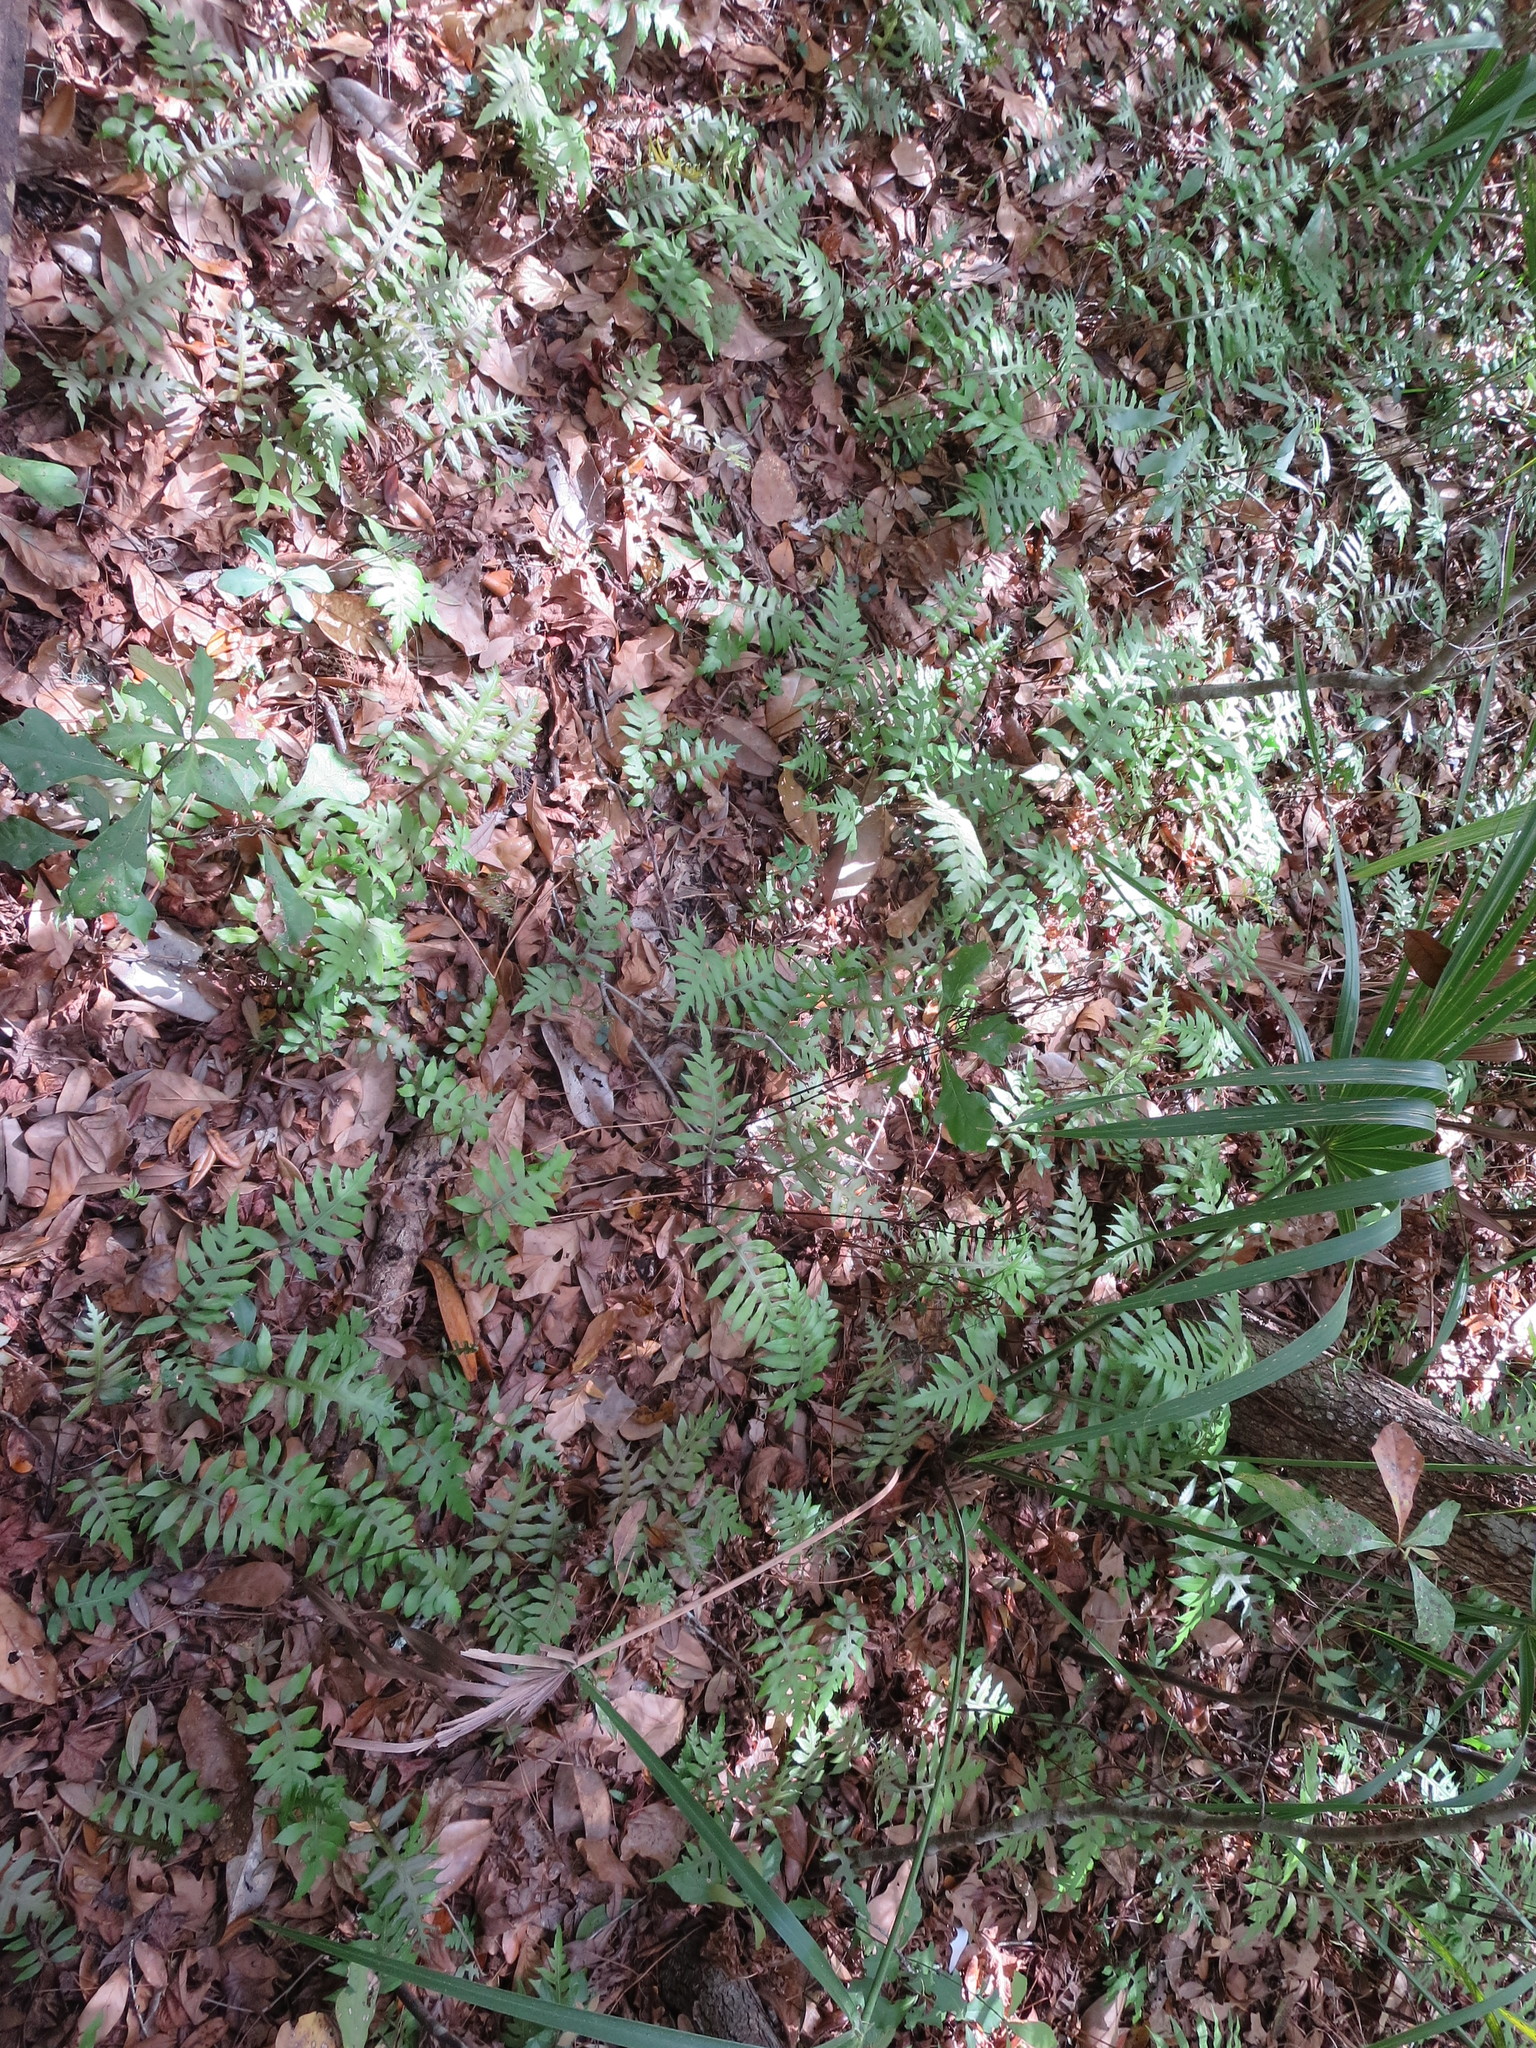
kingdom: Plantae
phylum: Tracheophyta
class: Polypodiopsida
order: Polypodiales
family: Blechnaceae
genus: Lorinseria
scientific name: Lorinseria areolata
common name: Dwarf chain fern
